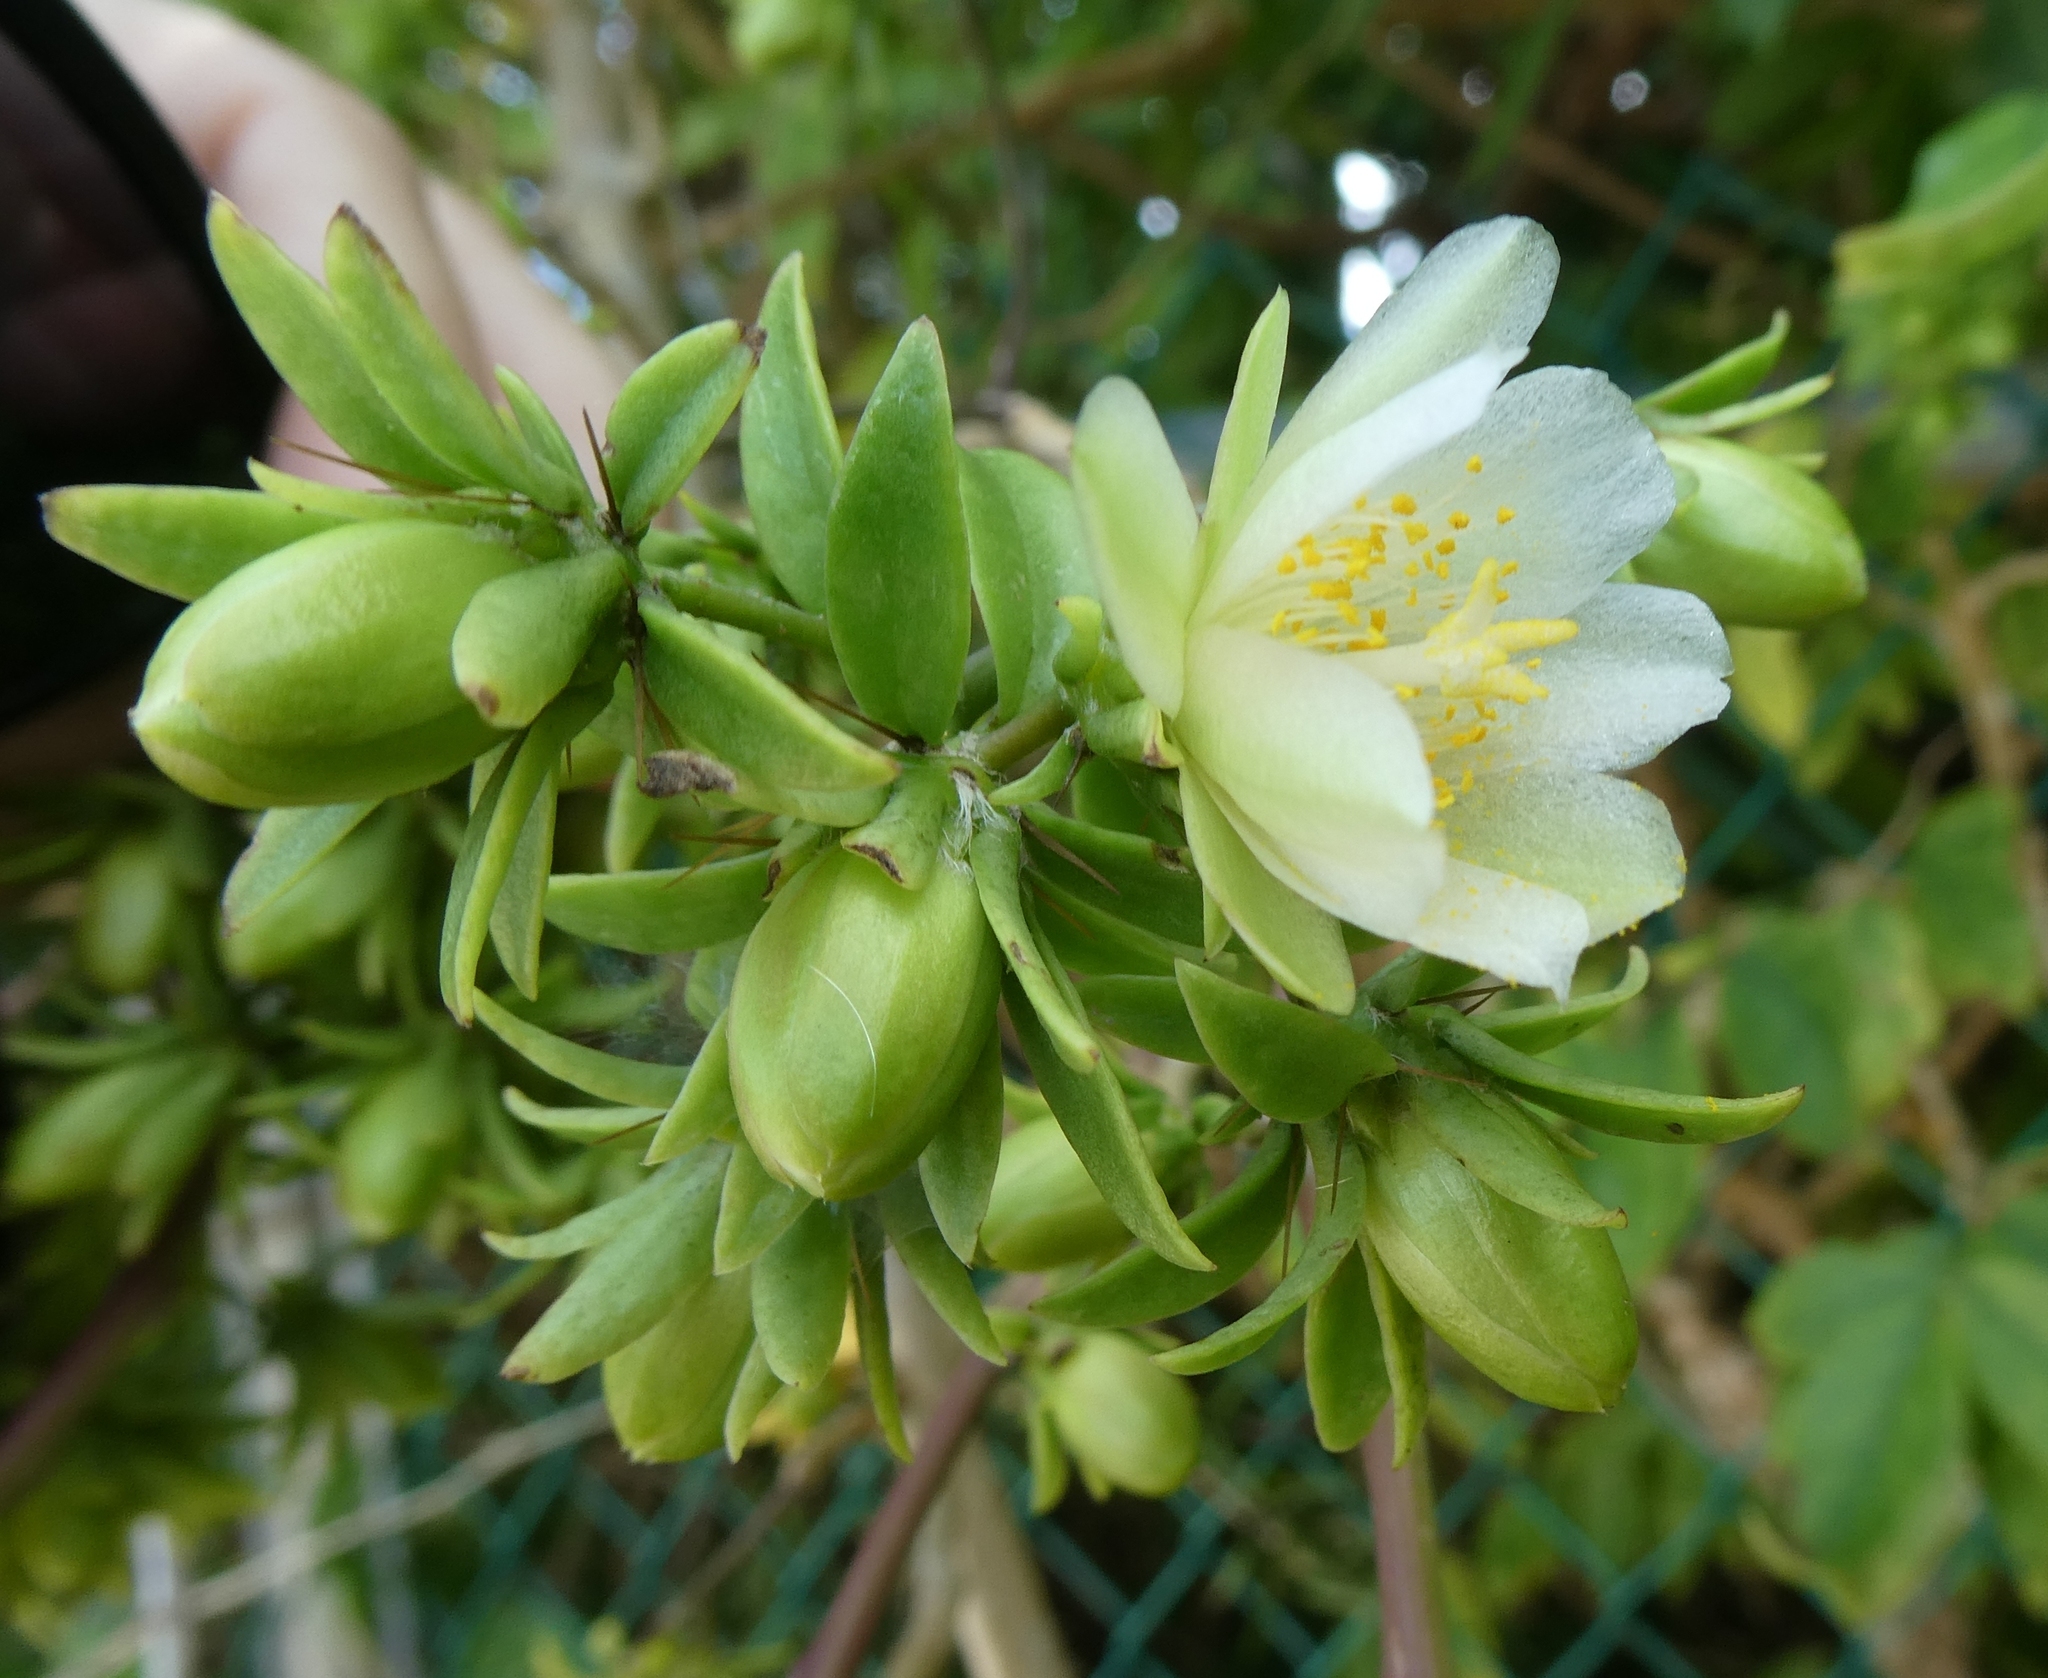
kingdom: Plantae
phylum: Tracheophyta
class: Magnoliopsida
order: Caryophyllales
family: Cactaceae
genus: Pereskia
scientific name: Pereskia aculeata
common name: Barbados gooseberry
